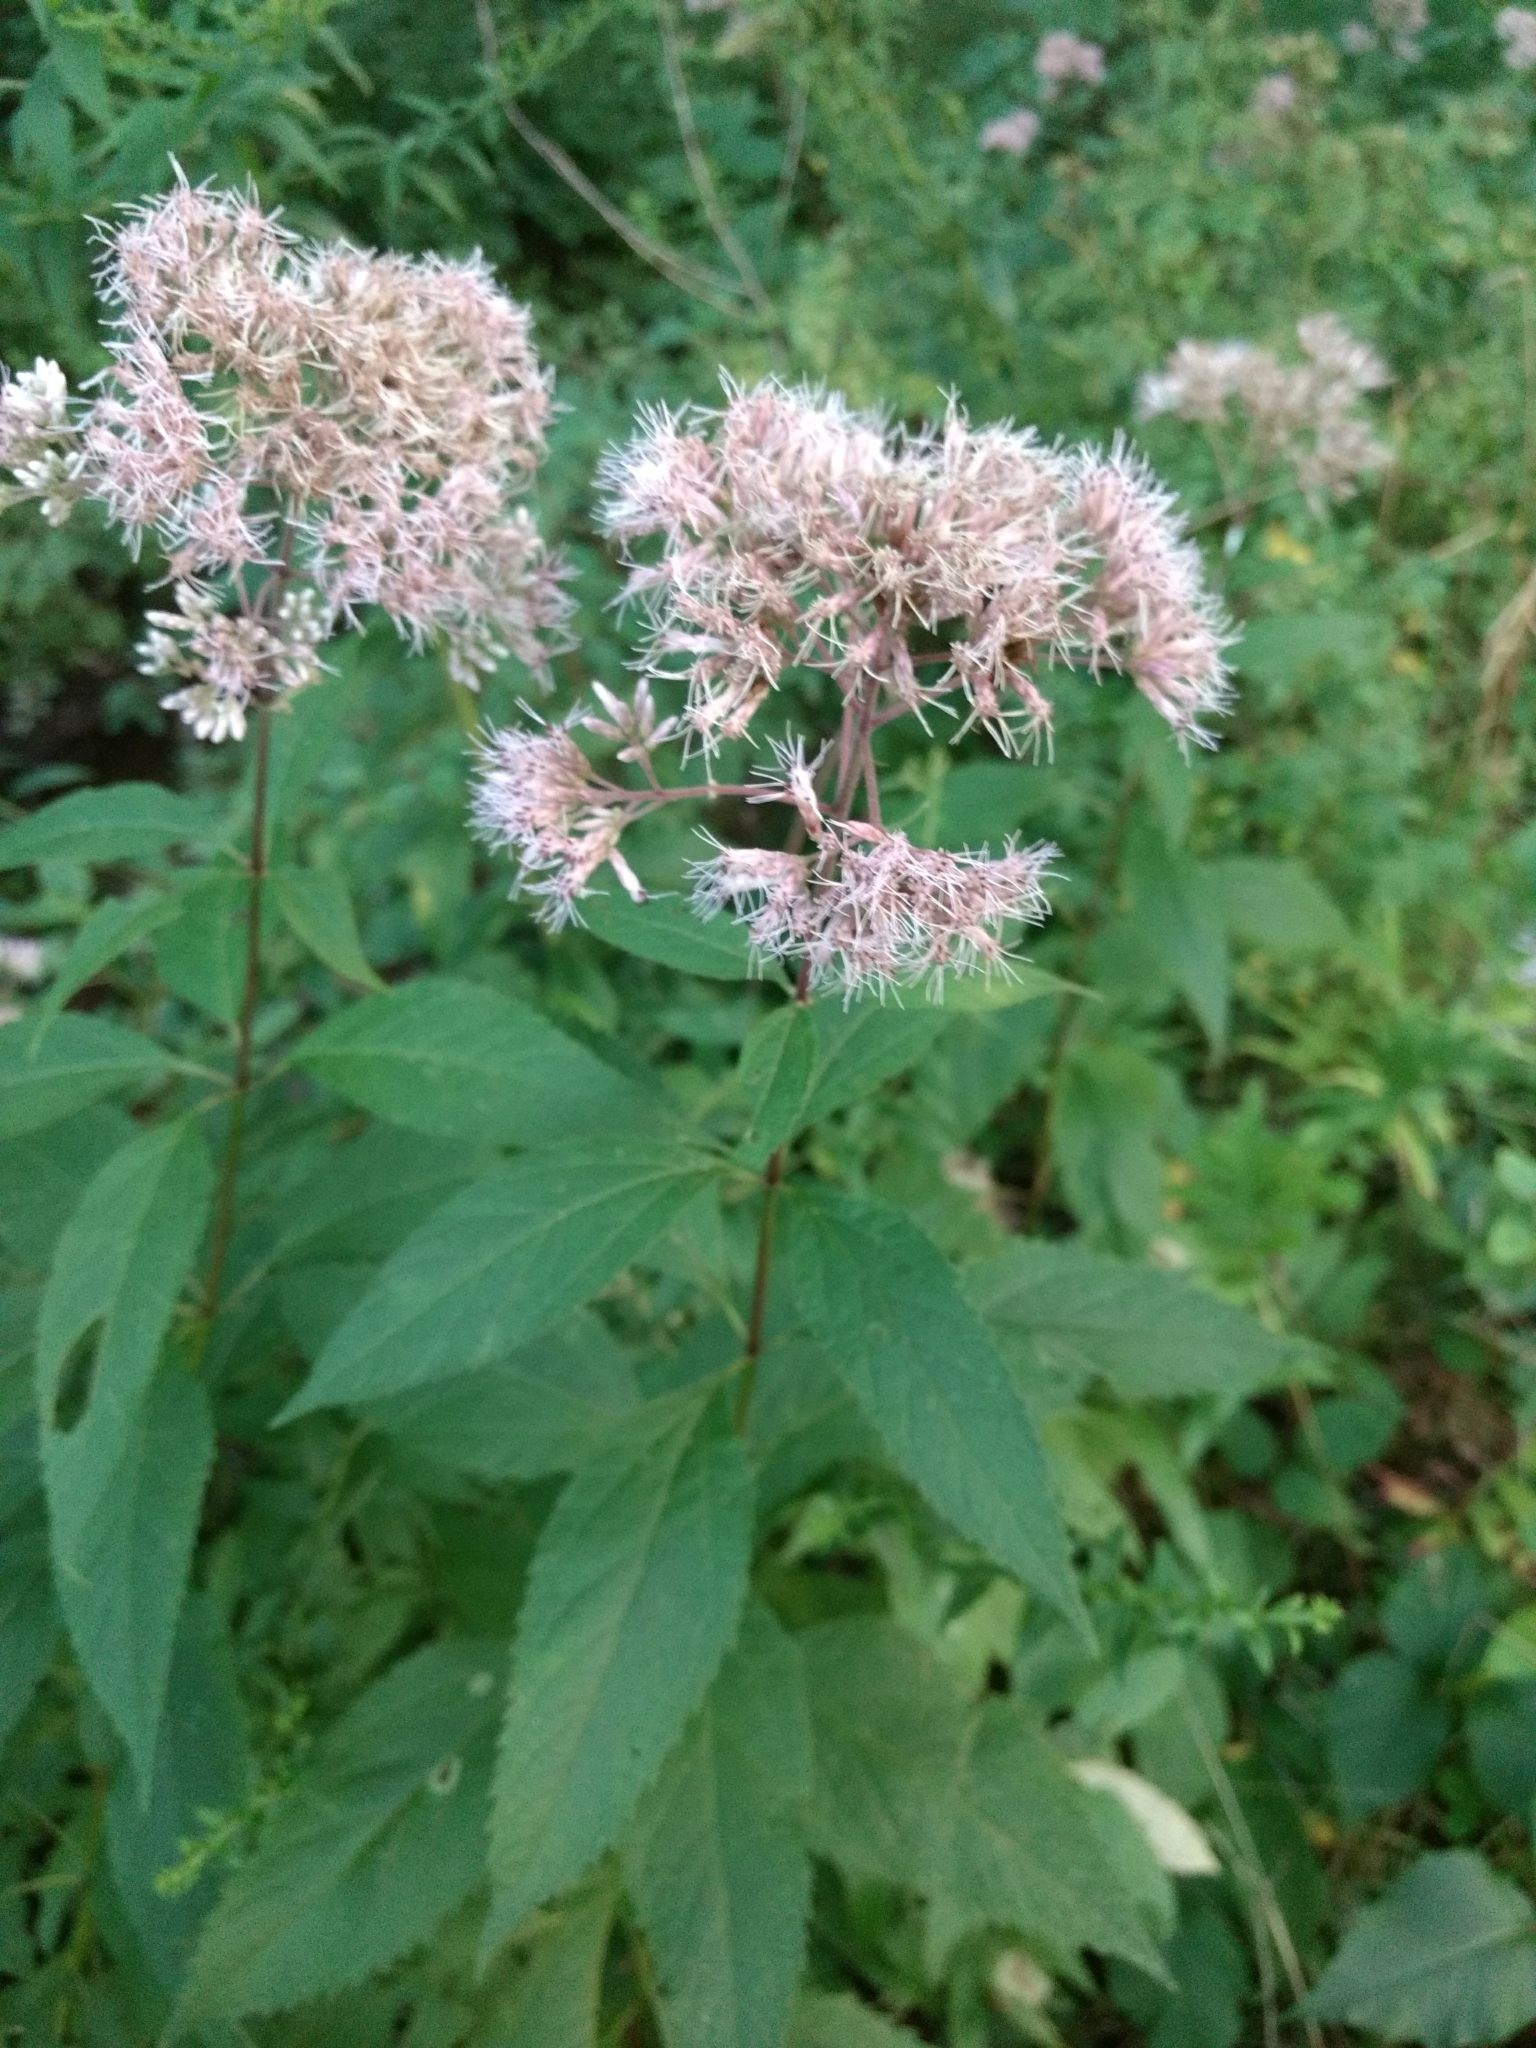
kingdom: Plantae
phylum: Tracheophyta
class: Magnoliopsida
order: Asterales
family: Asteraceae
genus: Eutrochium
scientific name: Eutrochium purpureum
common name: Gravelroot
